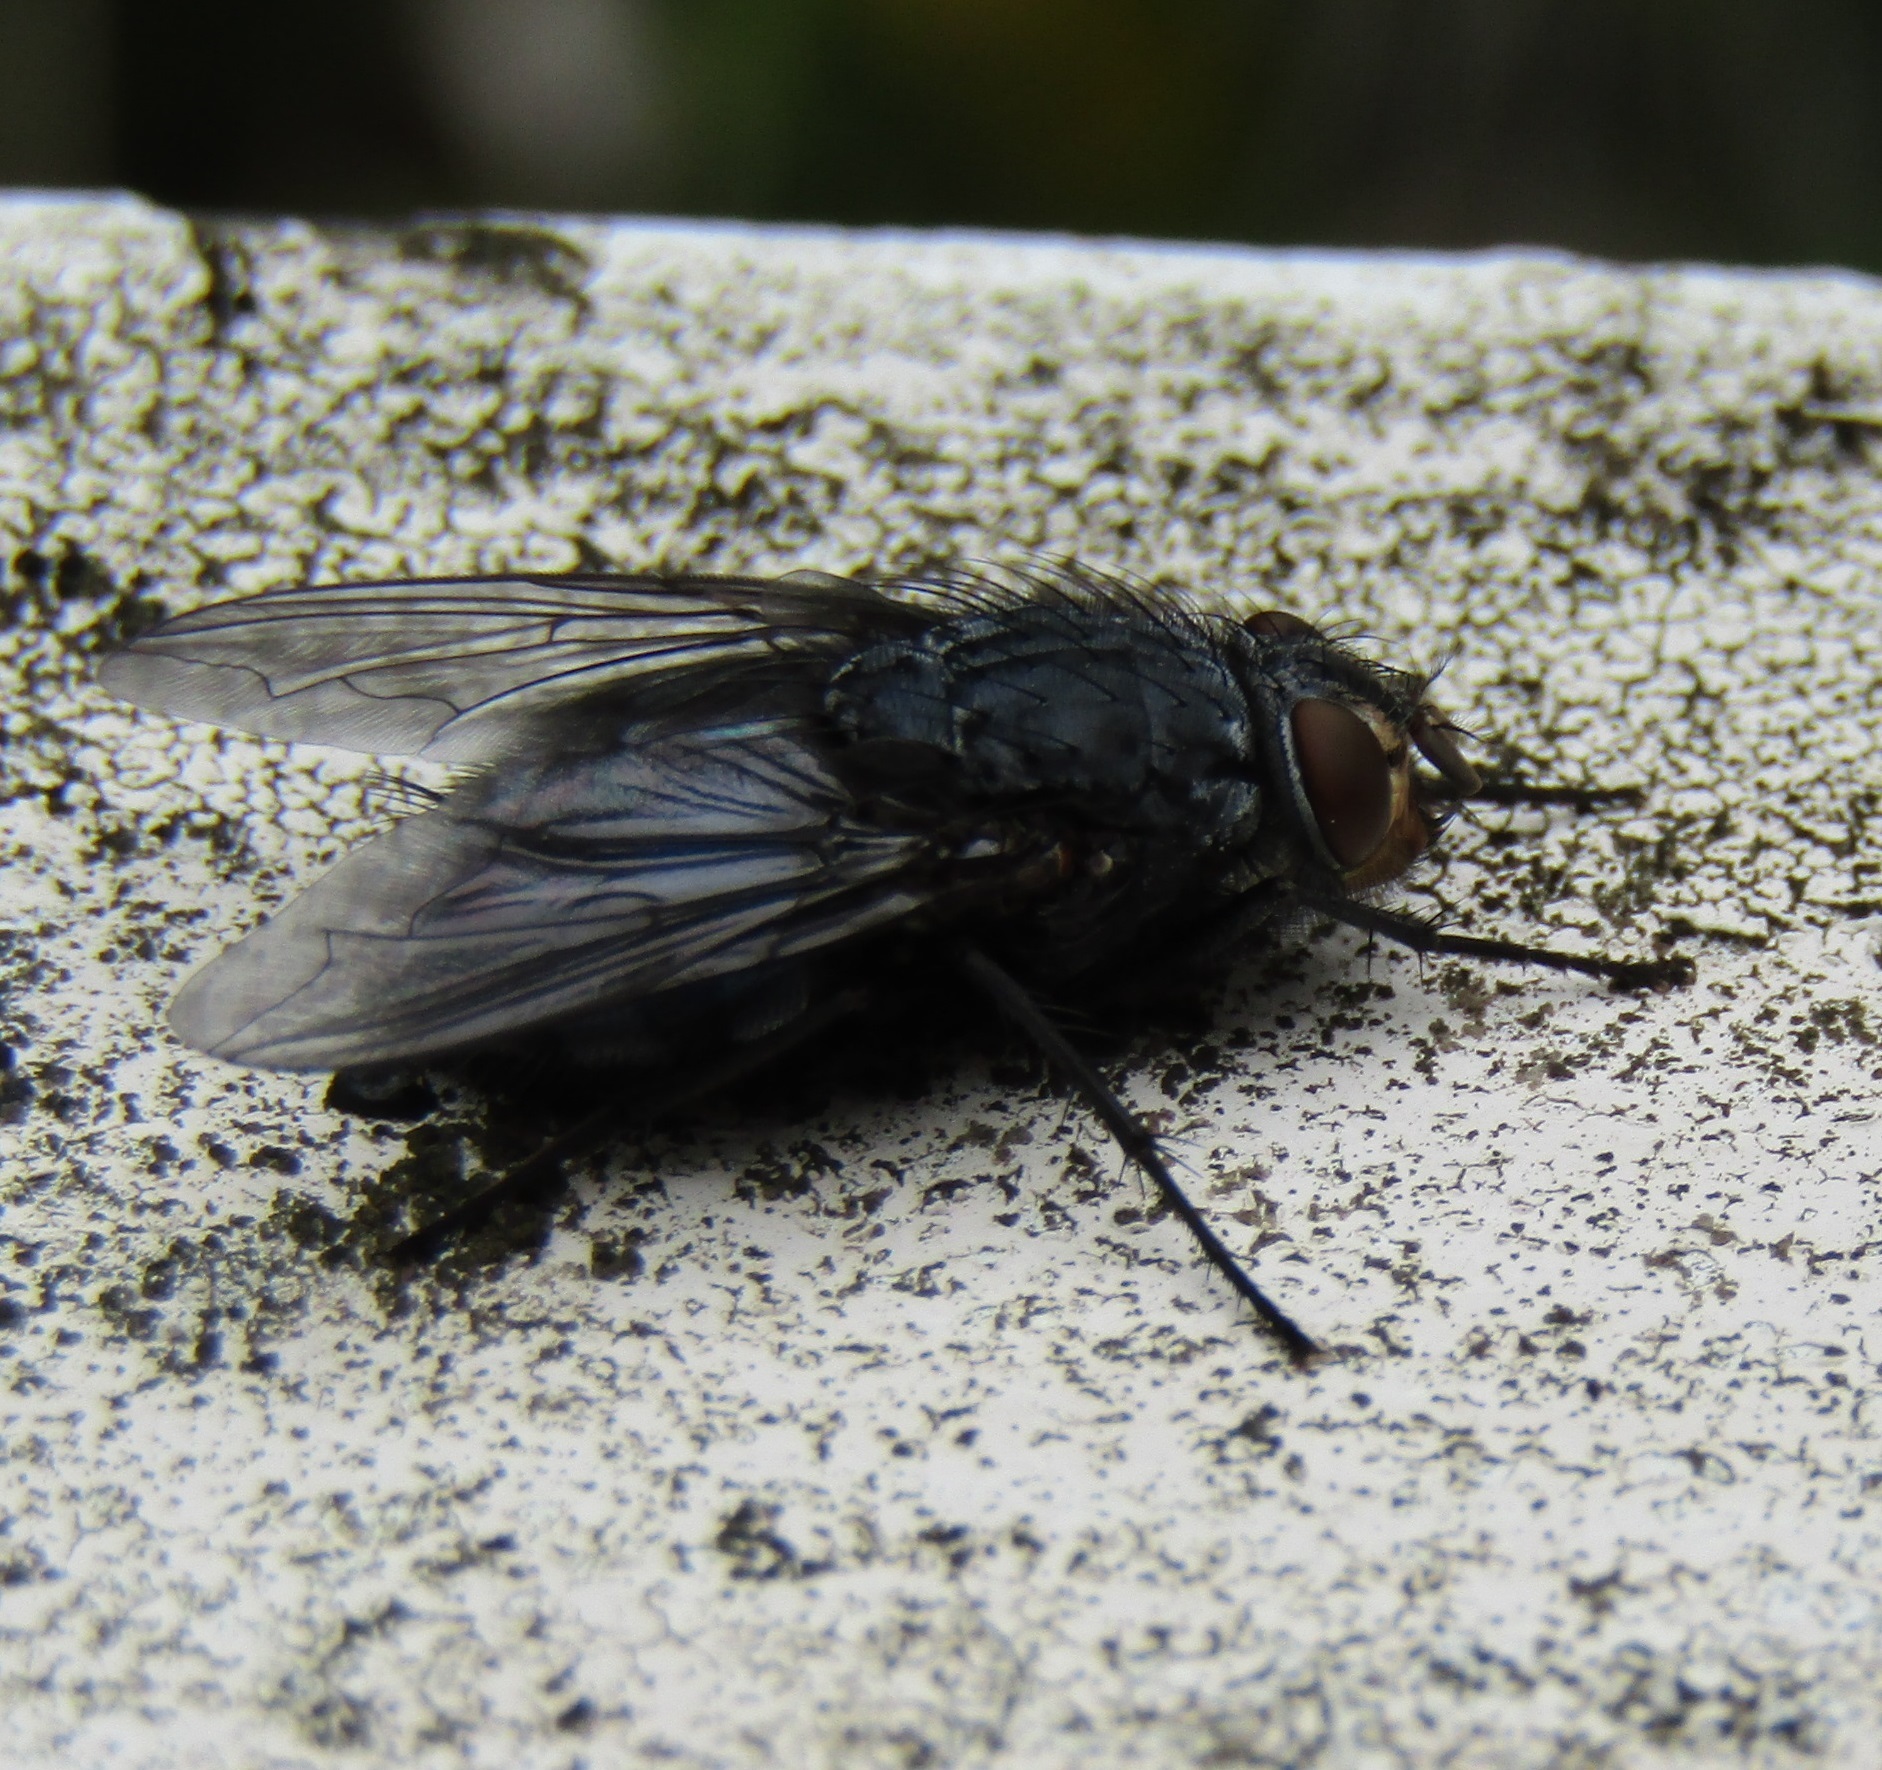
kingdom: Animalia
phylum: Arthropoda
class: Insecta
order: Diptera
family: Calliphoridae
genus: Calliphora
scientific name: Calliphora vicina
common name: Common blow flie
